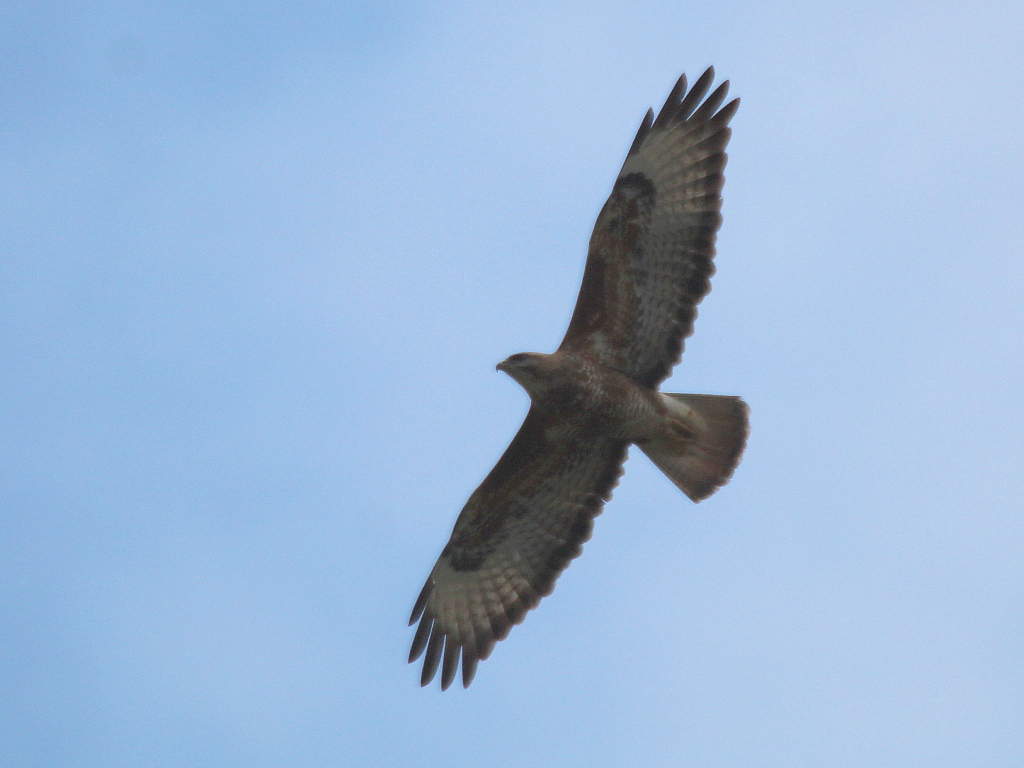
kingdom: Animalia
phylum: Chordata
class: Aves
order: Accipitriformes
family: Accipitridae
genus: Buteo
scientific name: Buteo buteo
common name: Common buzzard
